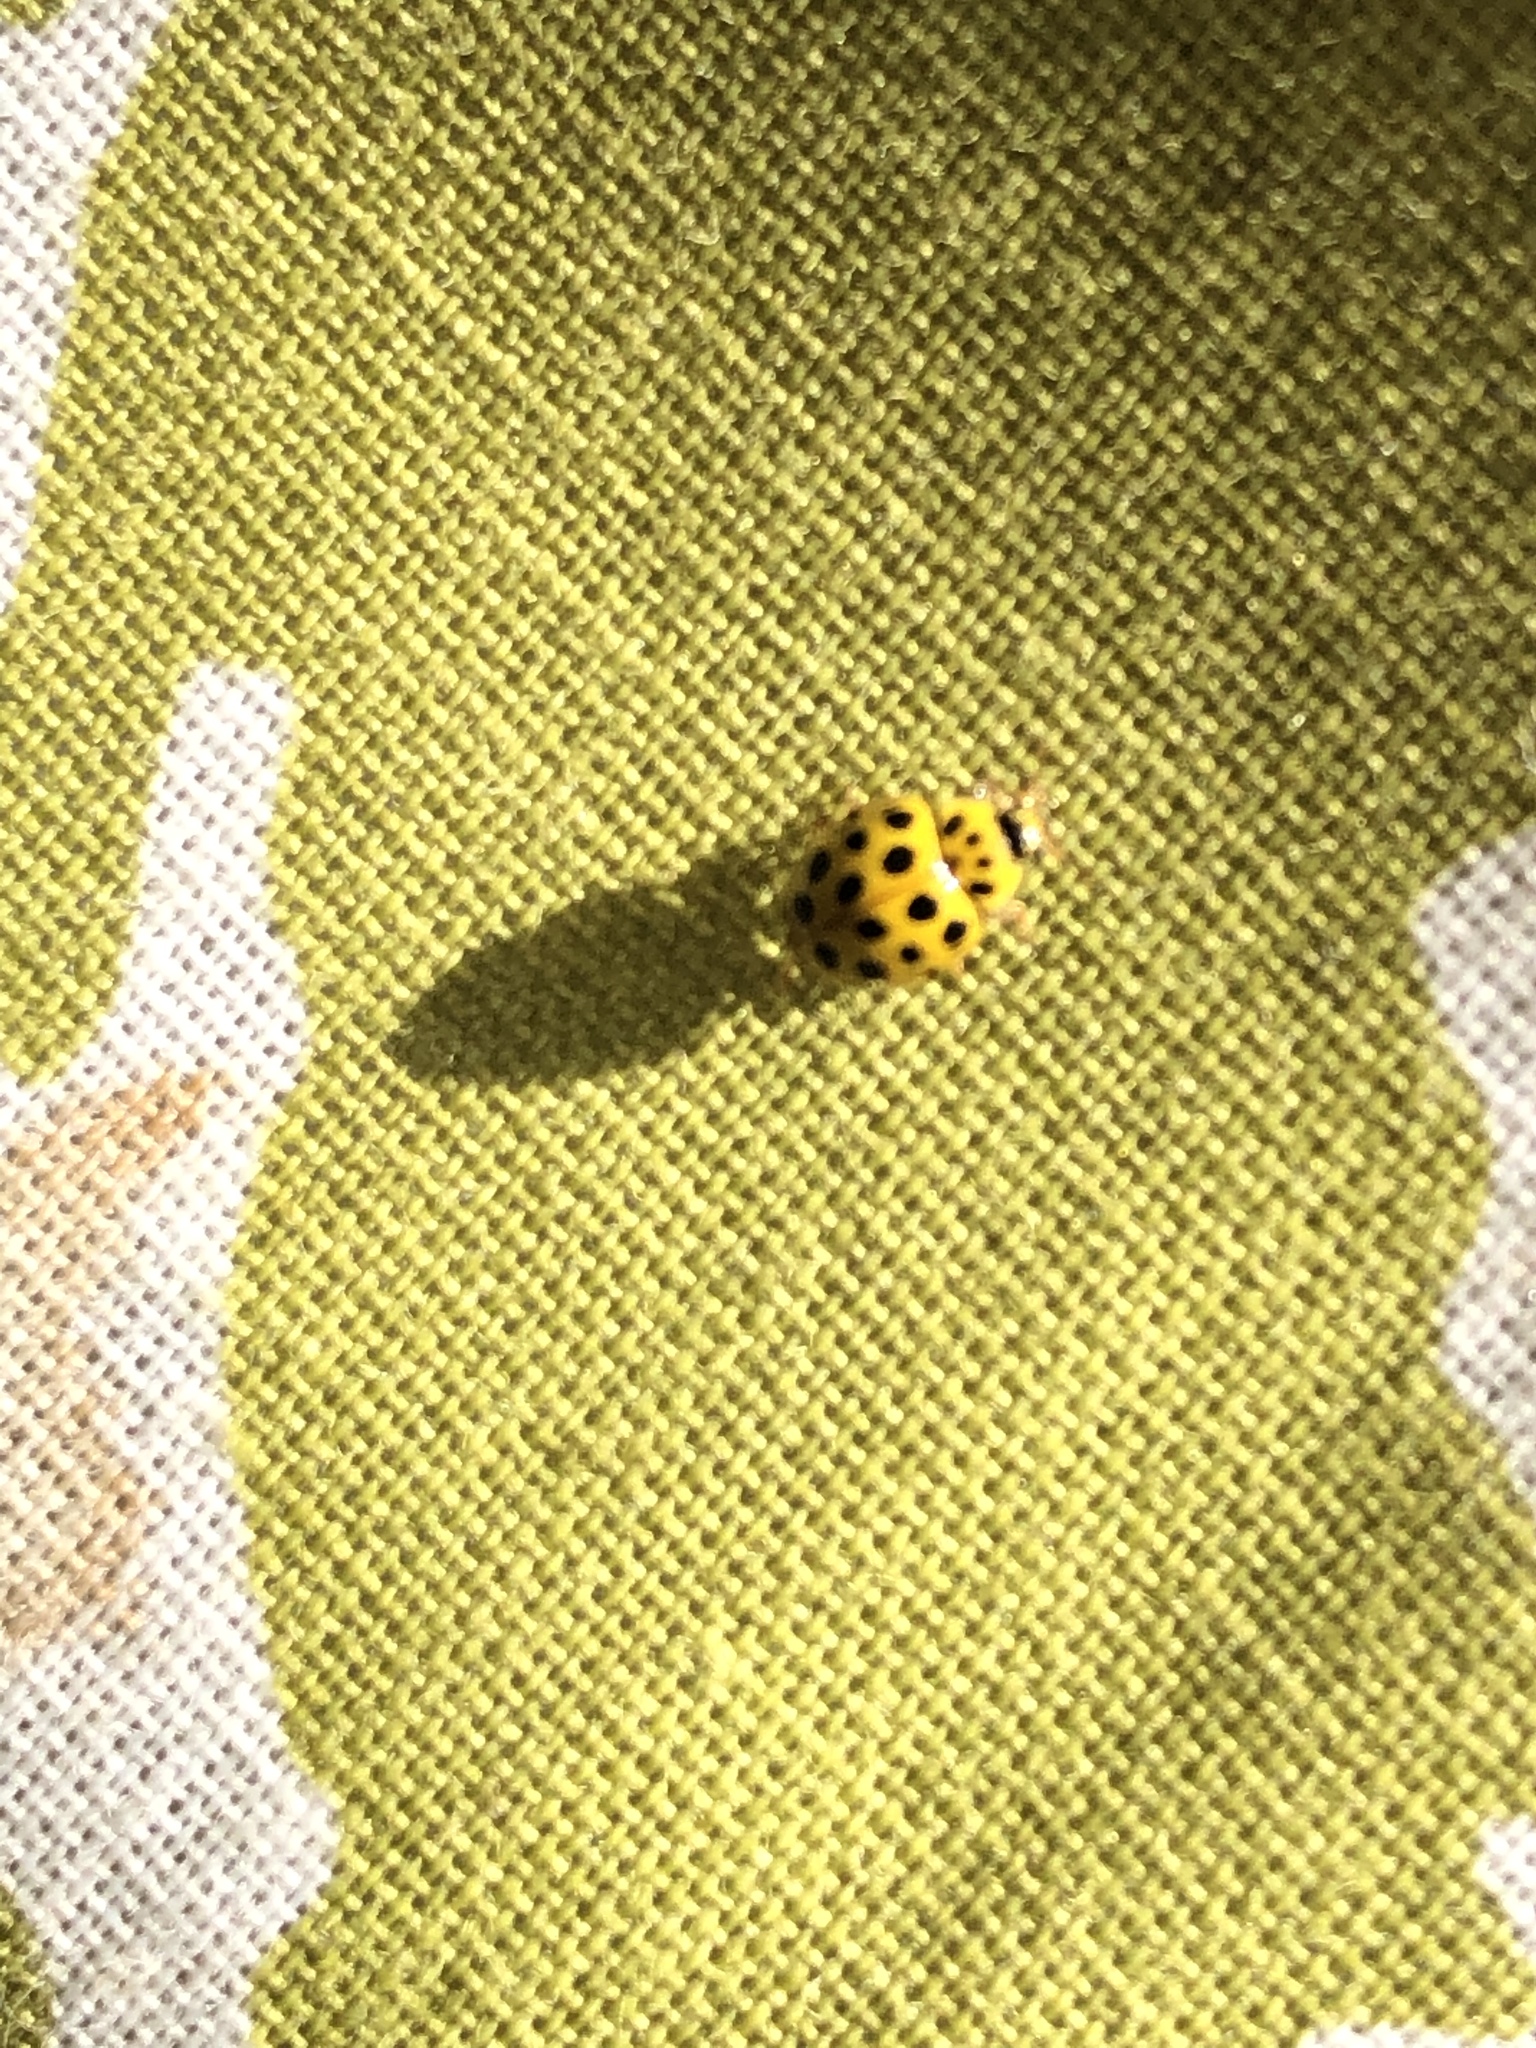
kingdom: Animalia
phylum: Arthropoda
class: Insecta
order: Coleoptera
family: Coccinellidae
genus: Psyllobora
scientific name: Psyllobora vigintiduopunctata
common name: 22-spot ladybird
